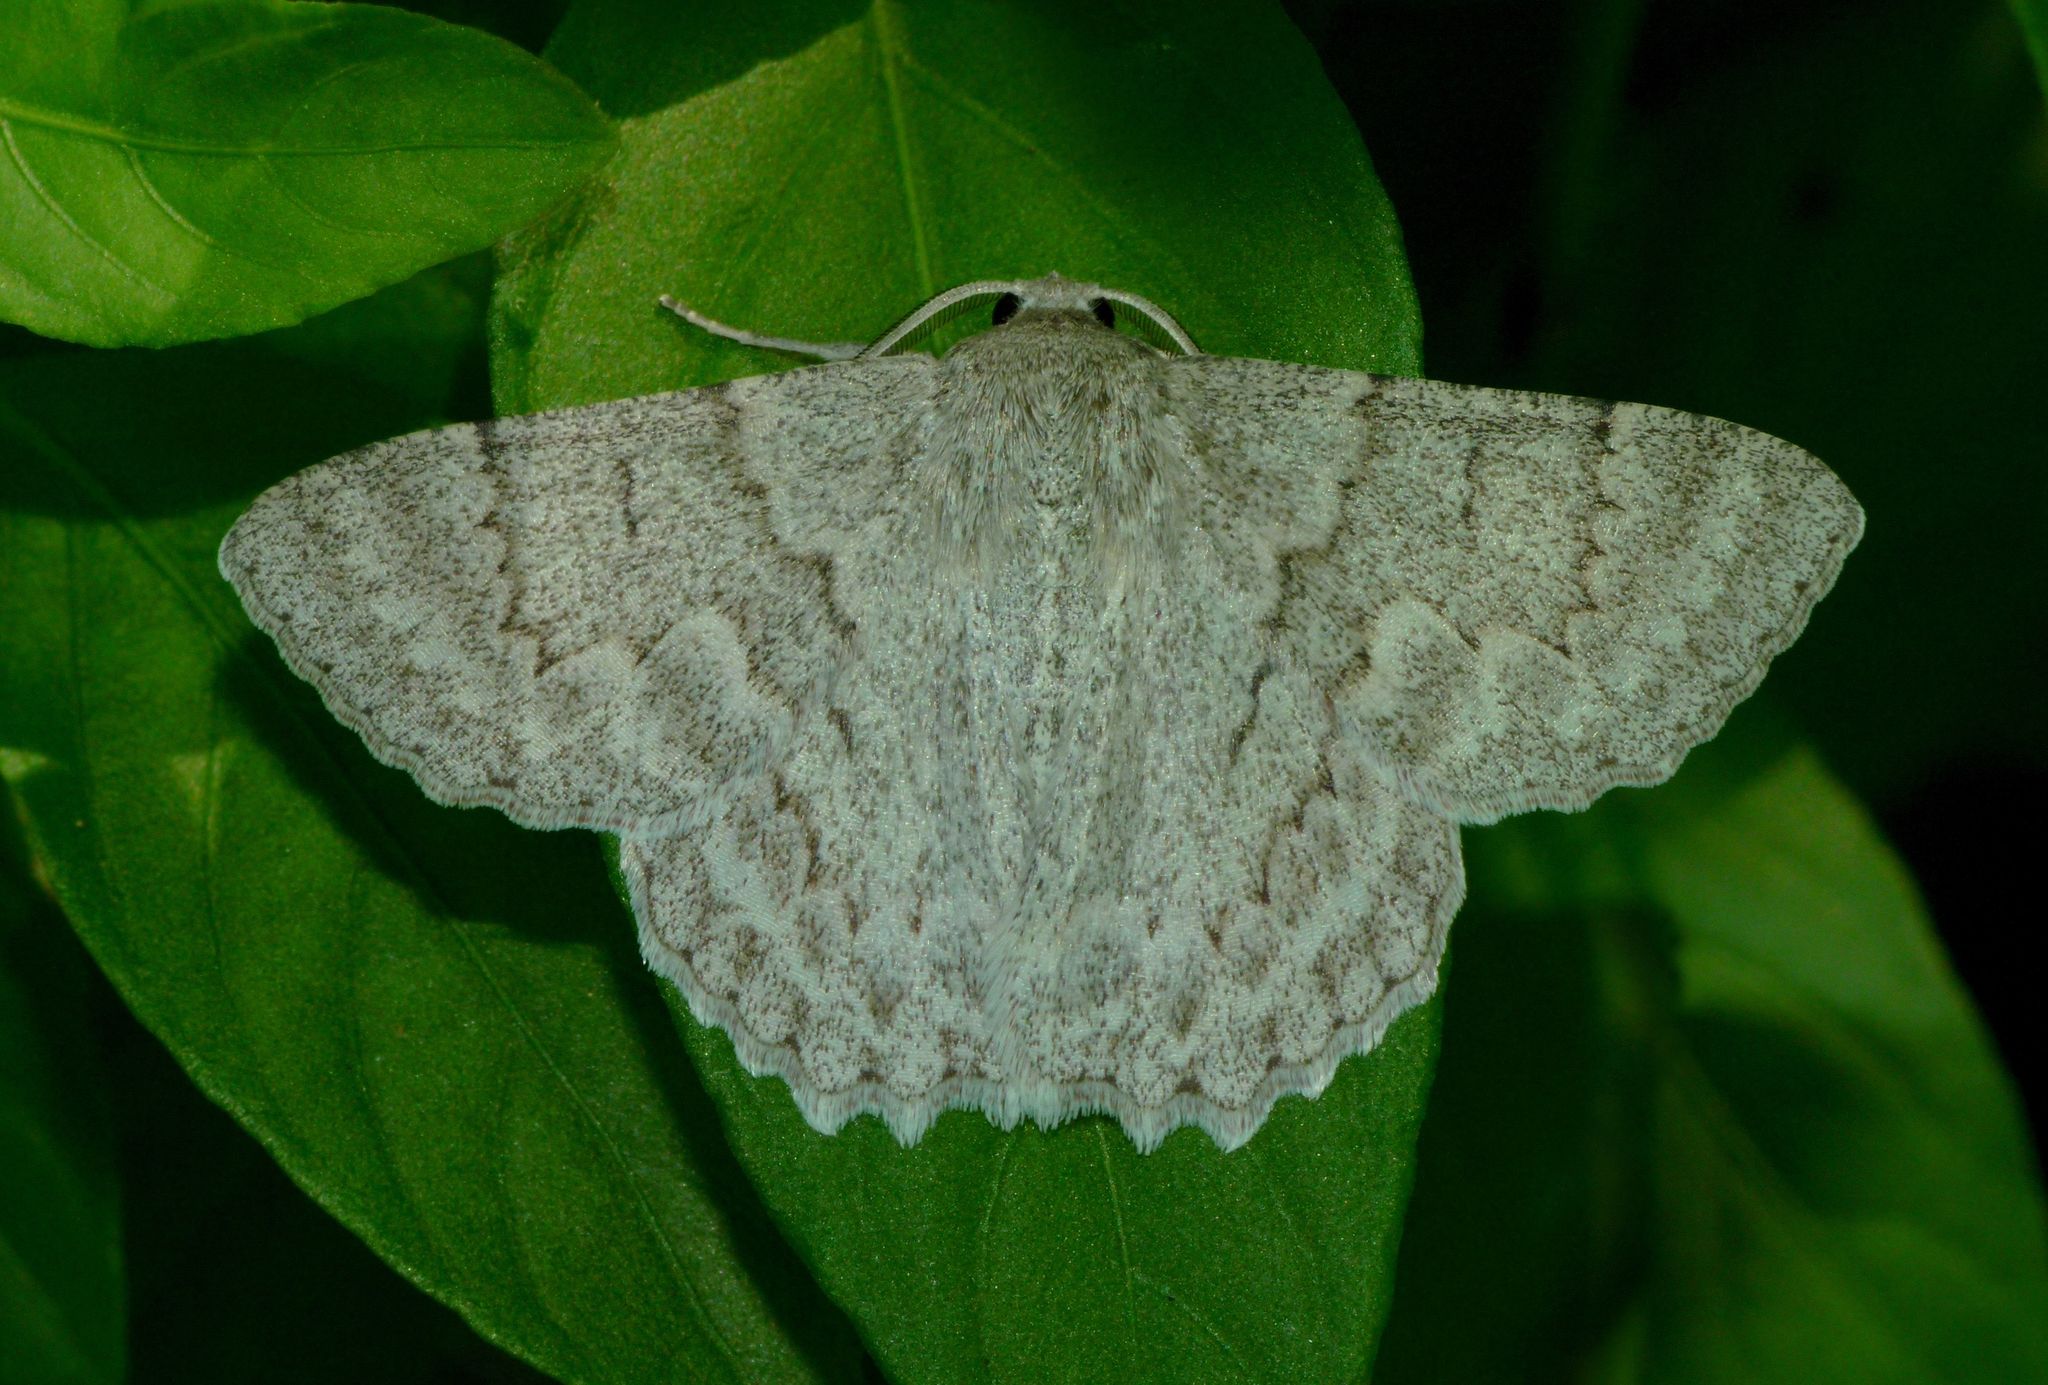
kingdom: Animalia
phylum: Arthropoda
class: Insecta
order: Lepidoptera
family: Geometridae
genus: Crypsiphona
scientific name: Crypsiphona ocultaria
